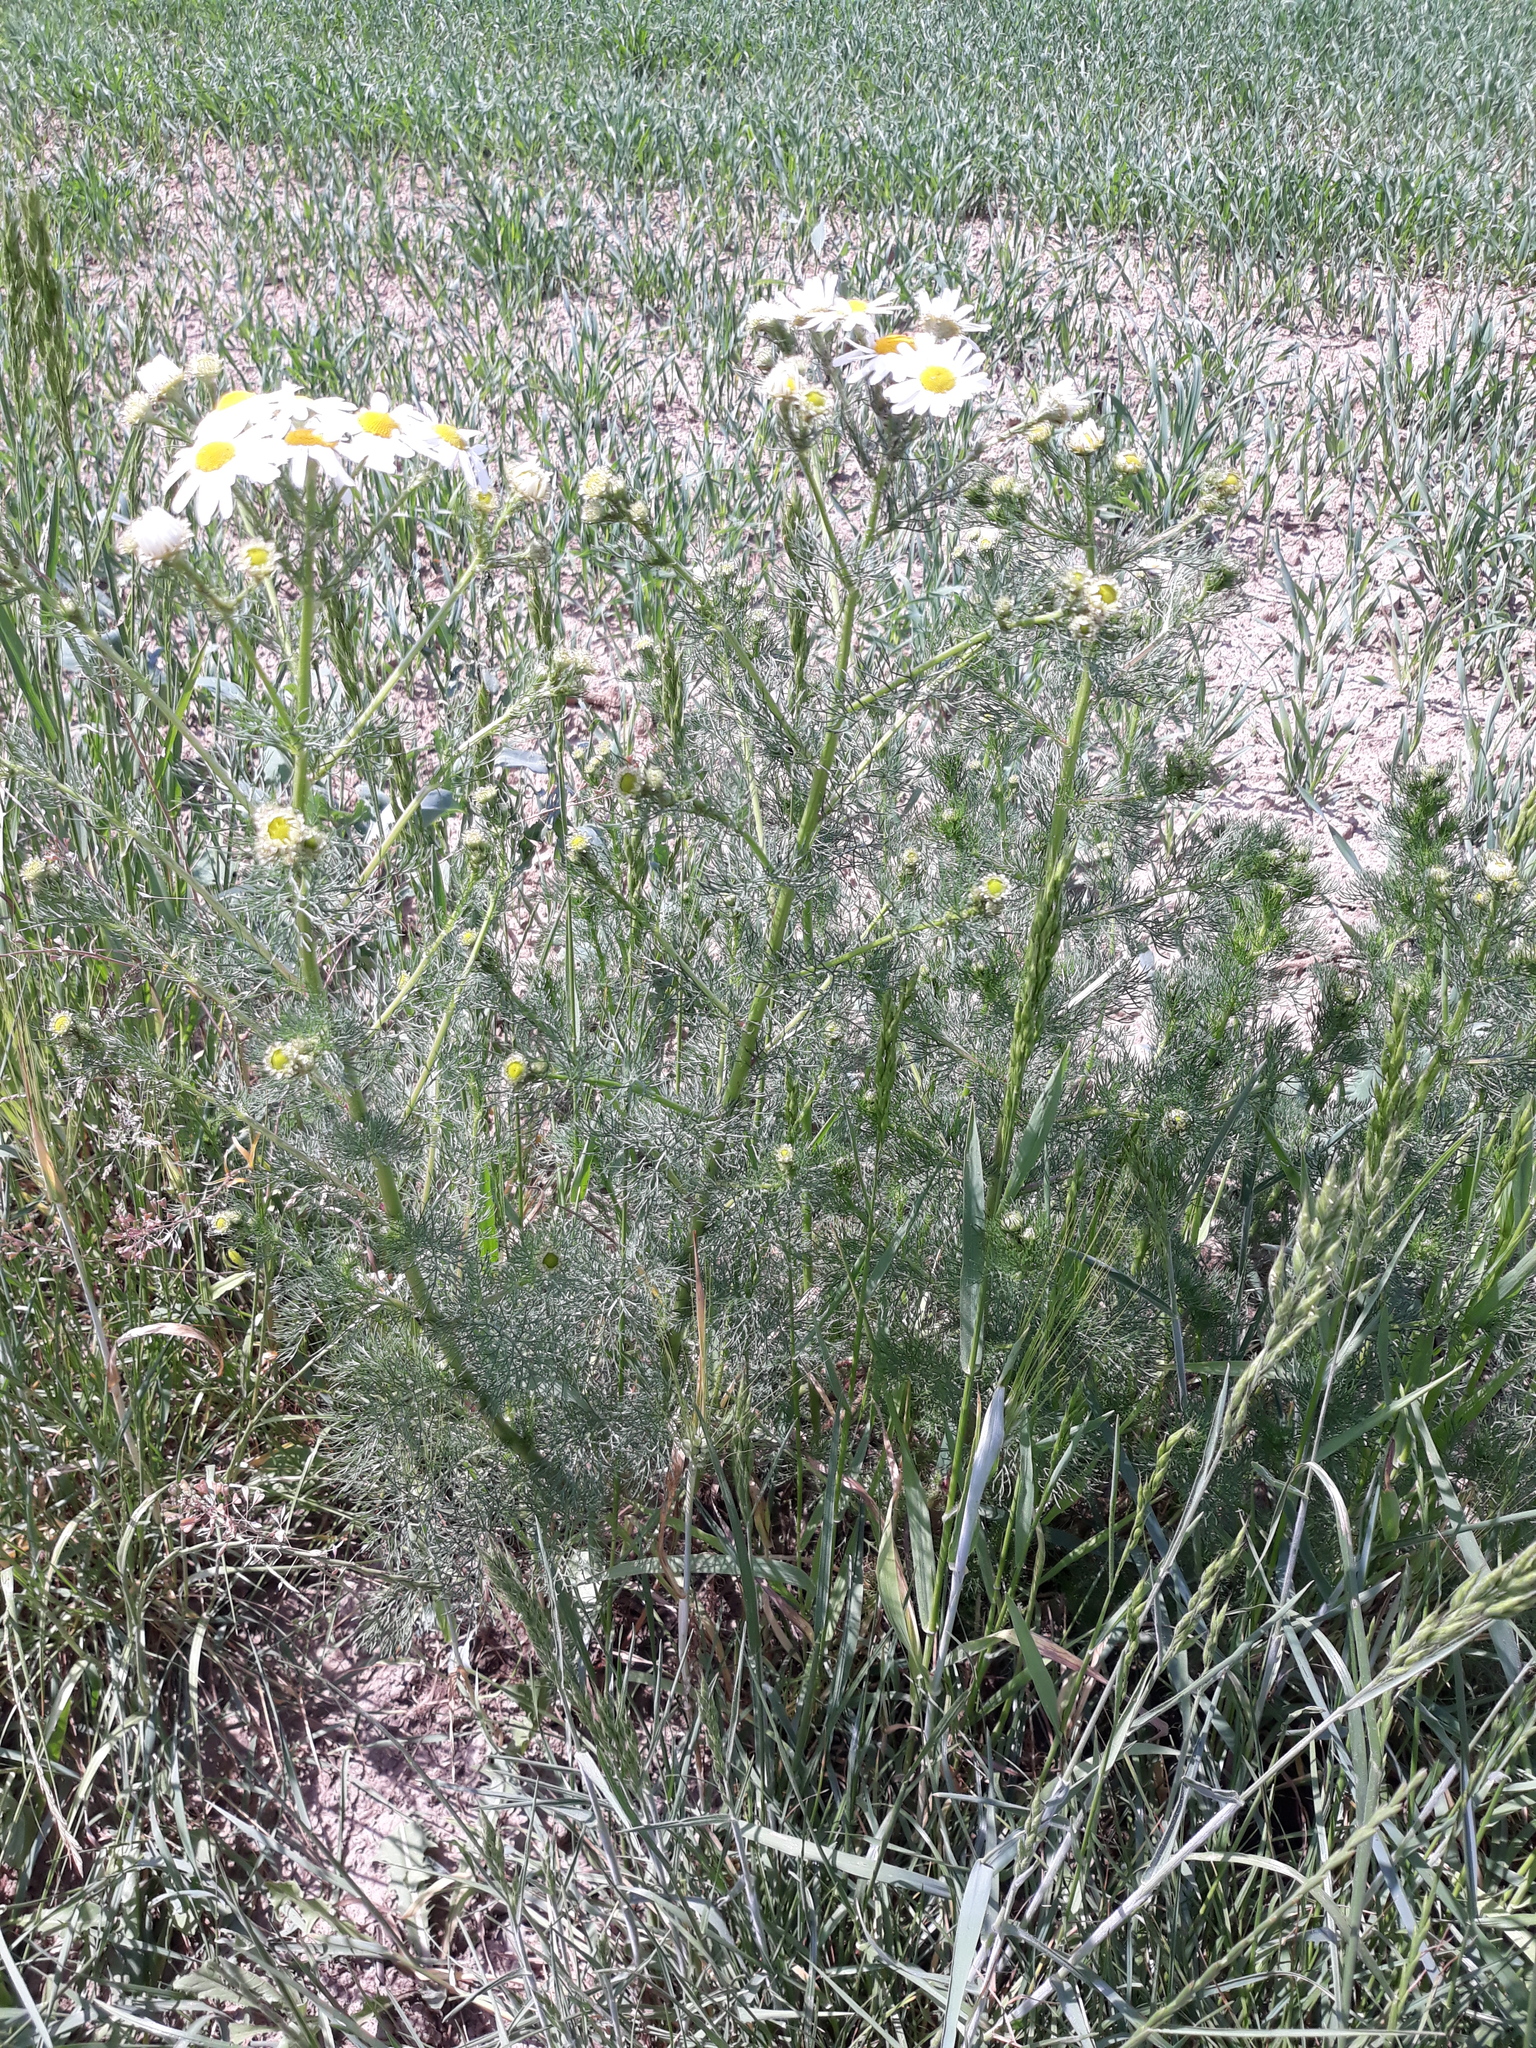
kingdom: Plantae
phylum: Tracheophyta
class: Magnoliopsida
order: Asterales
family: Asteraceae
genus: Tripleurospermum
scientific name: Tripleurospermum inodorum
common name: Scentless mayweed
